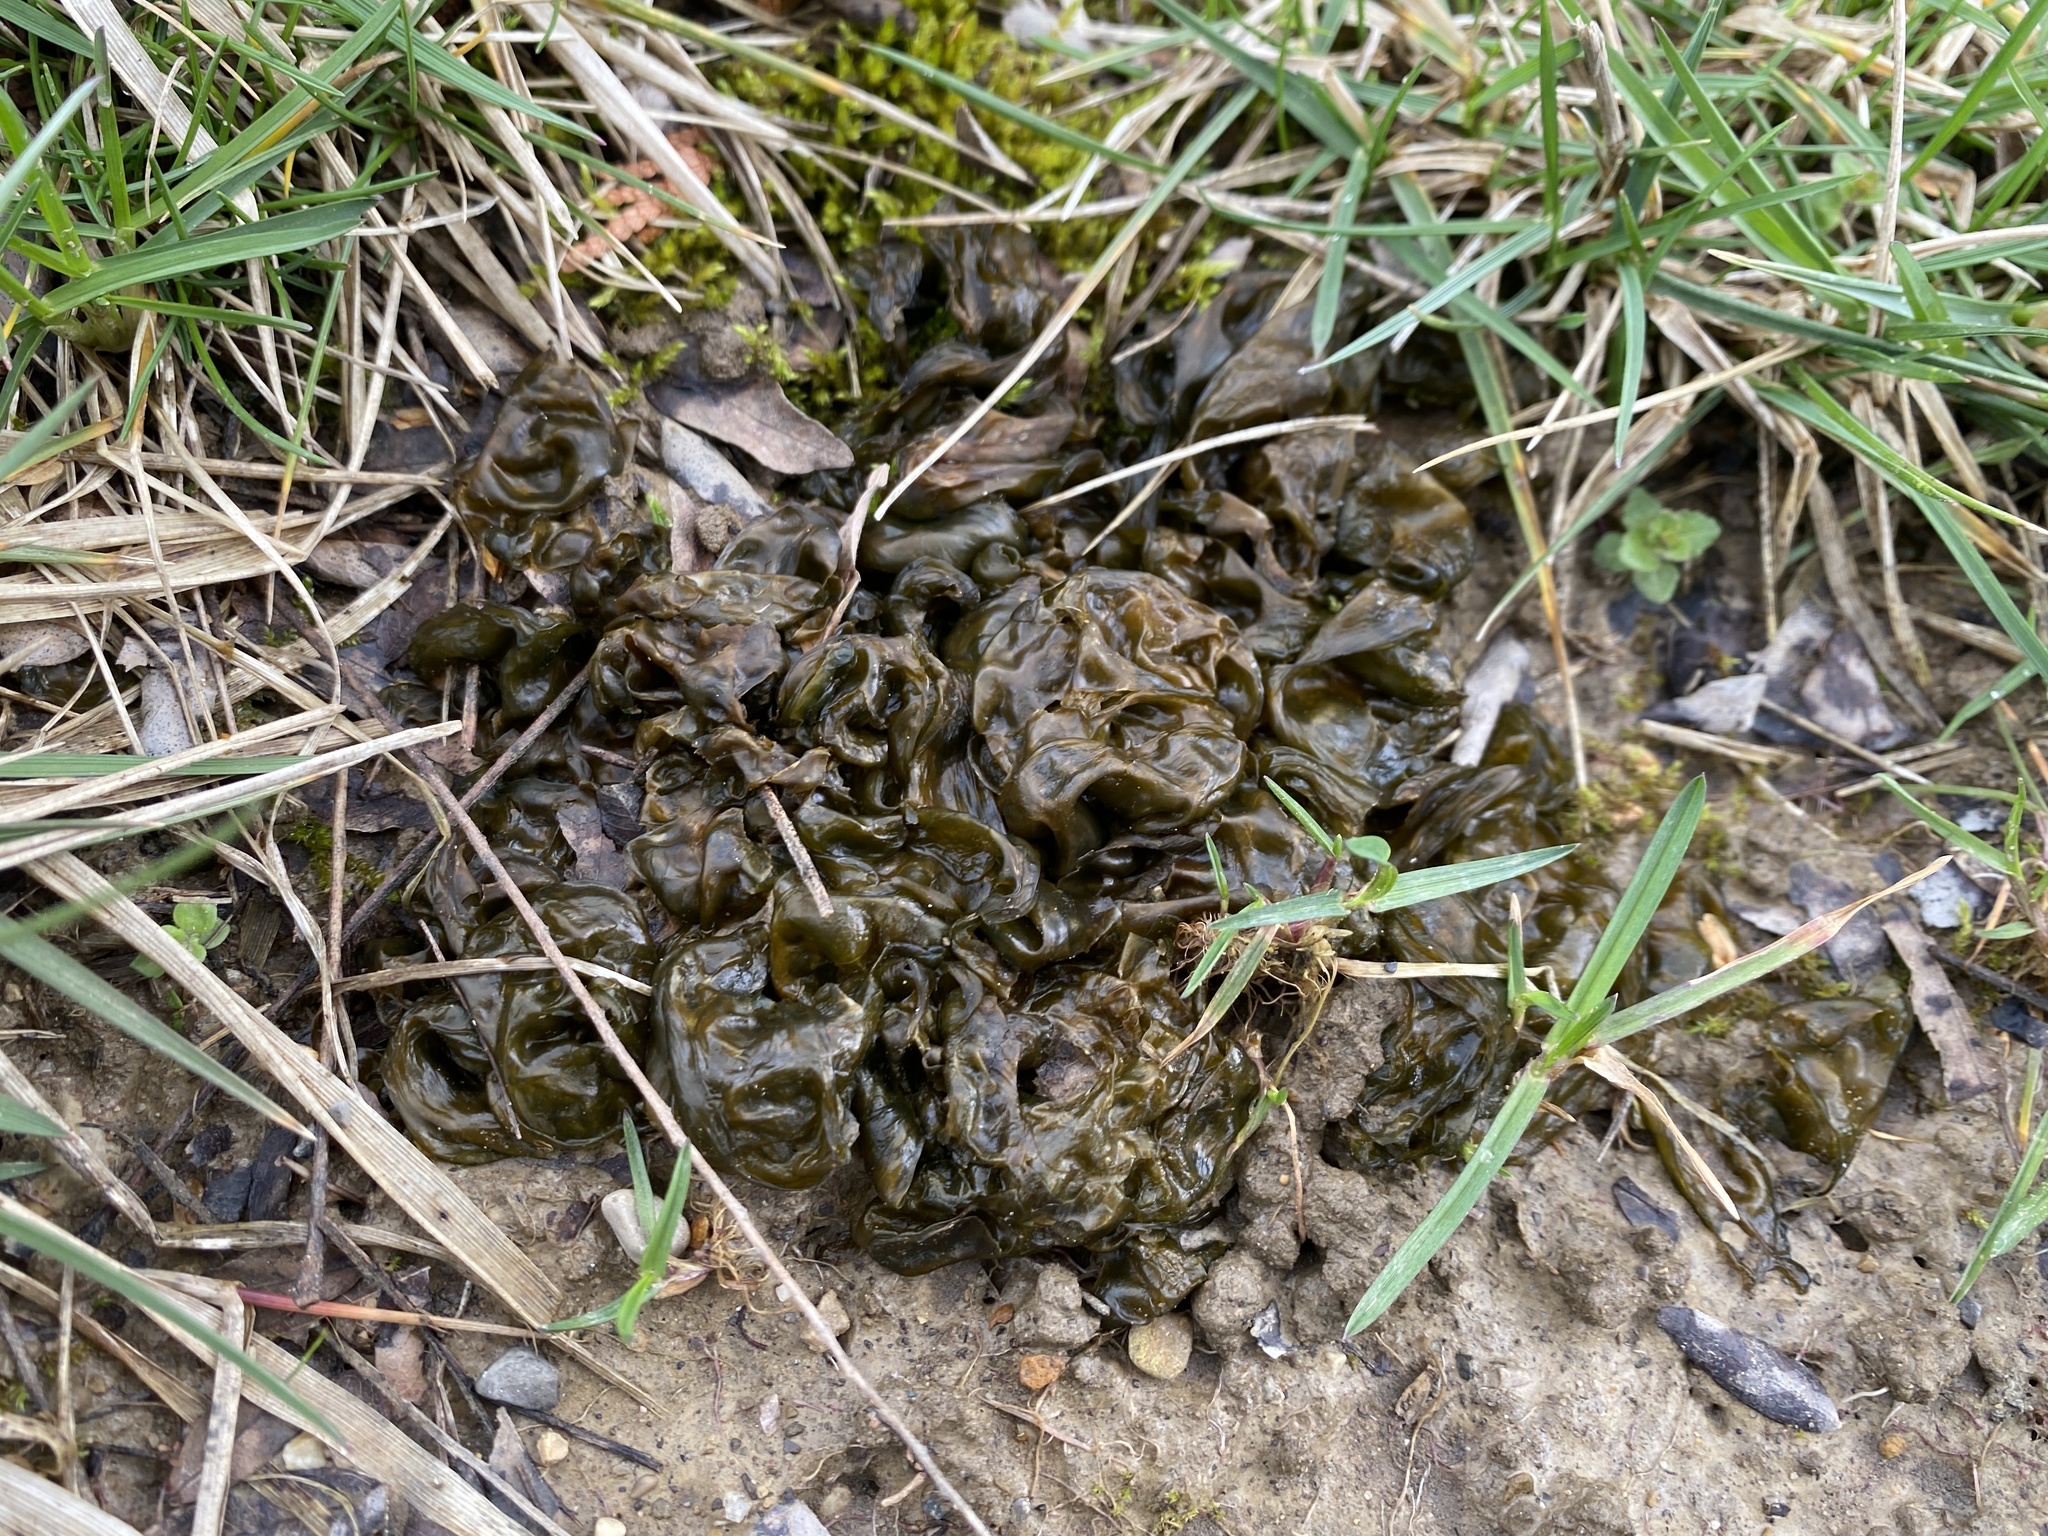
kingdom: Bacteria
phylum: Cyanobacteria
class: Cyanobacteriia
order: Cyanobacteriales
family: Nostocaceae
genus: Nostoc
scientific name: Nostoc commune
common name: Star jelly
